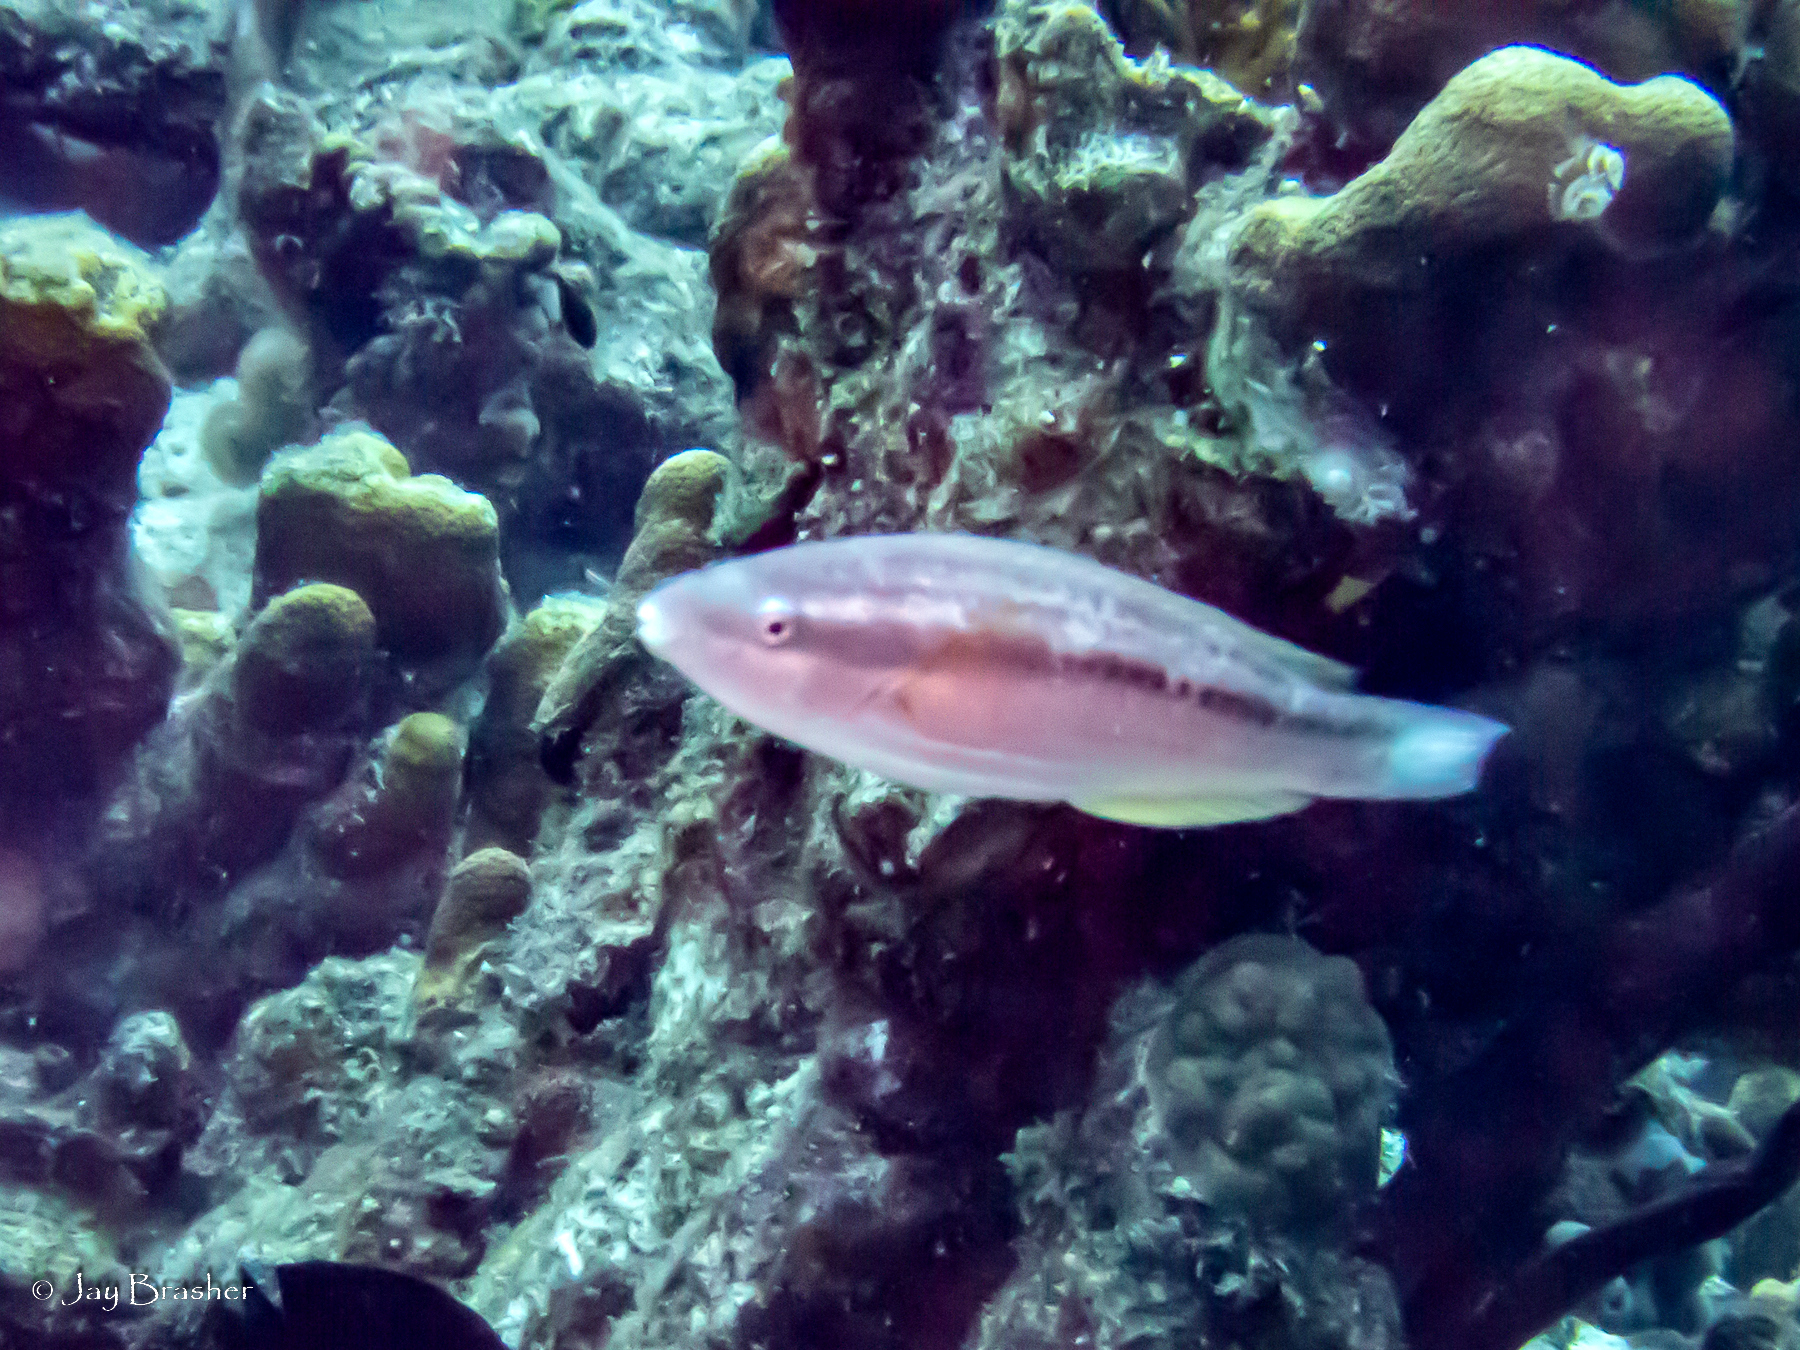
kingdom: Animalia
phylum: Chordata
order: Perciformes
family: Scaridae
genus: Scarus
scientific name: Scarus iseri
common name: Striped parrotfish
